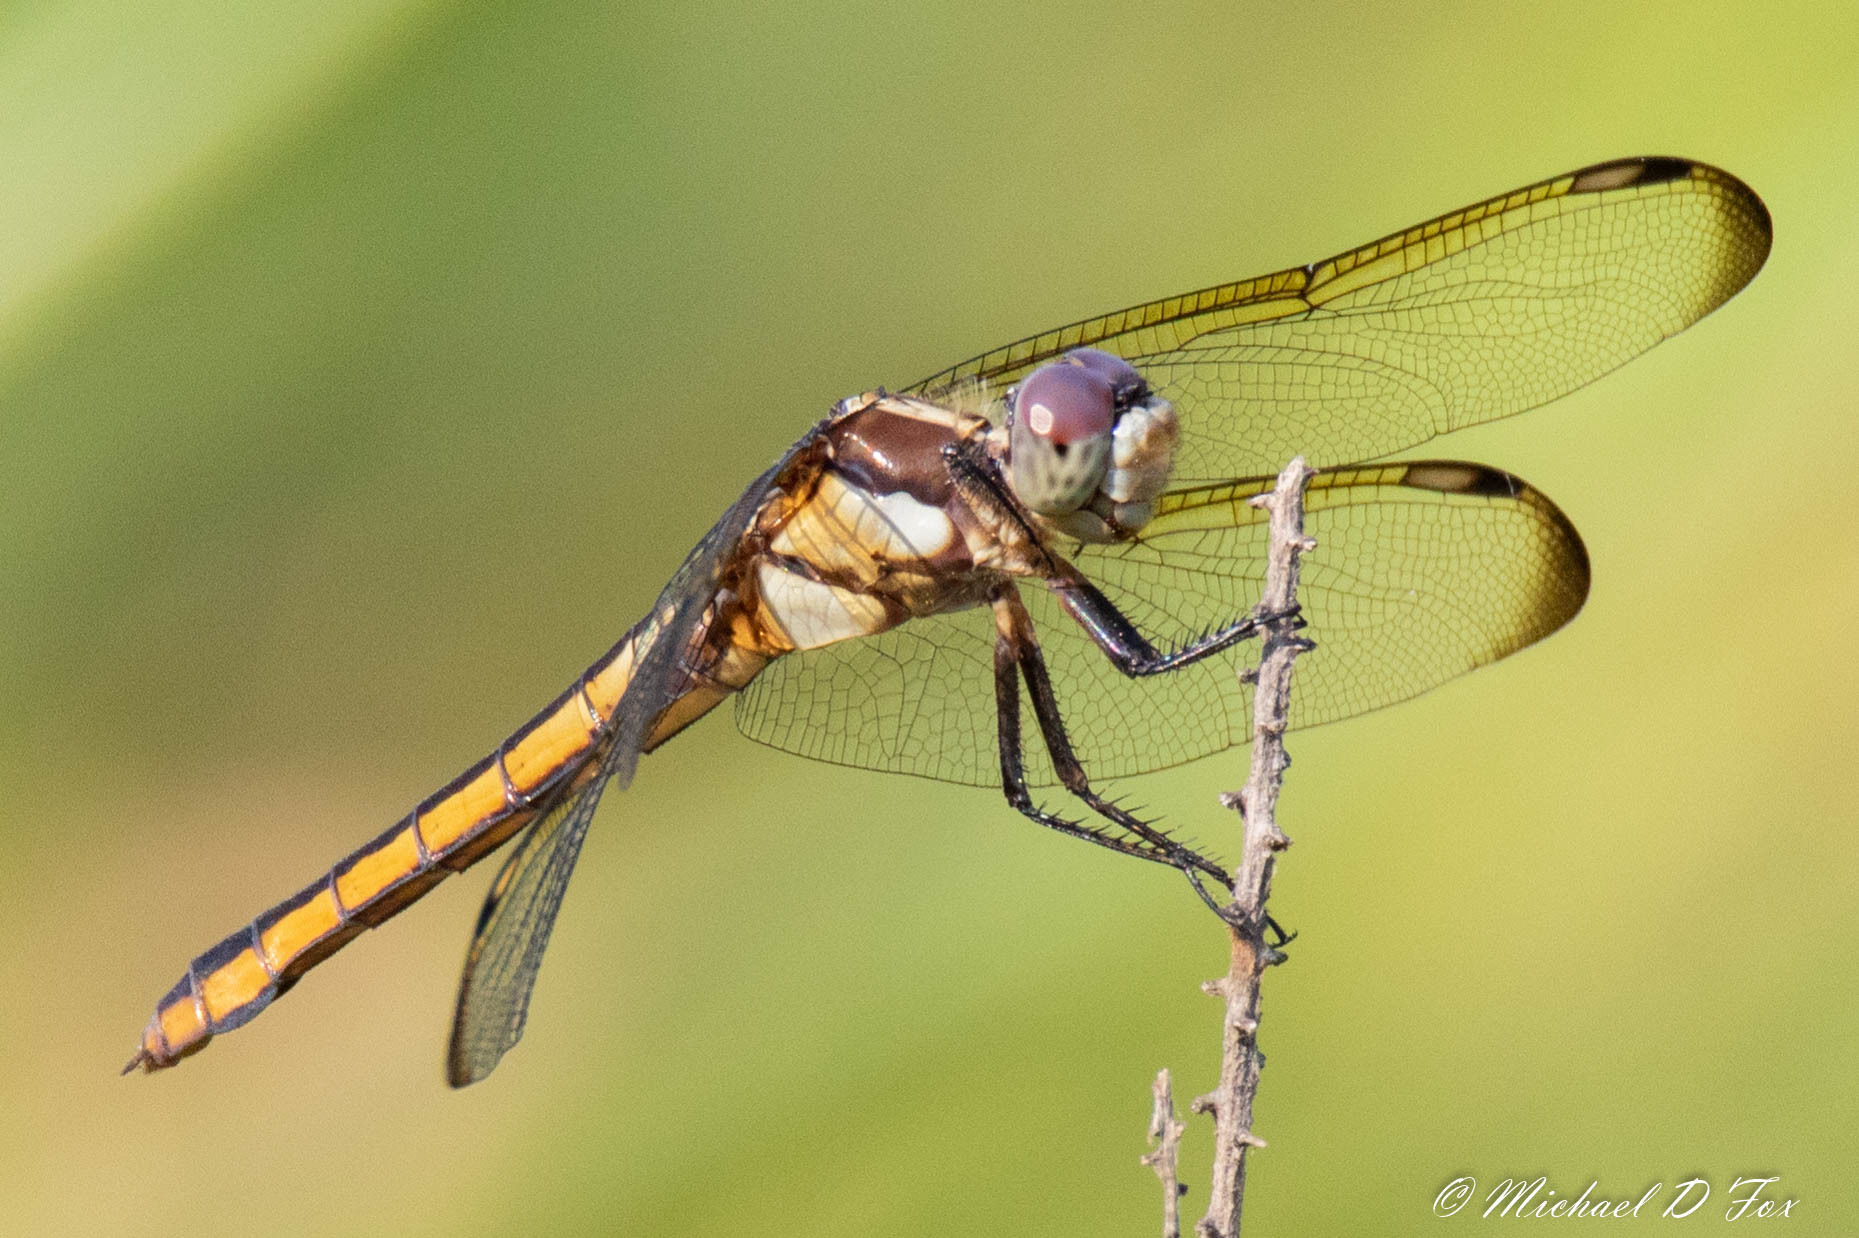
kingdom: Animalia
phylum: Arthropoda
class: Insecta
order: Odonata
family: Libellulidae
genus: Libellula
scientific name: Libellula comanche
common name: Comanche skimmer
